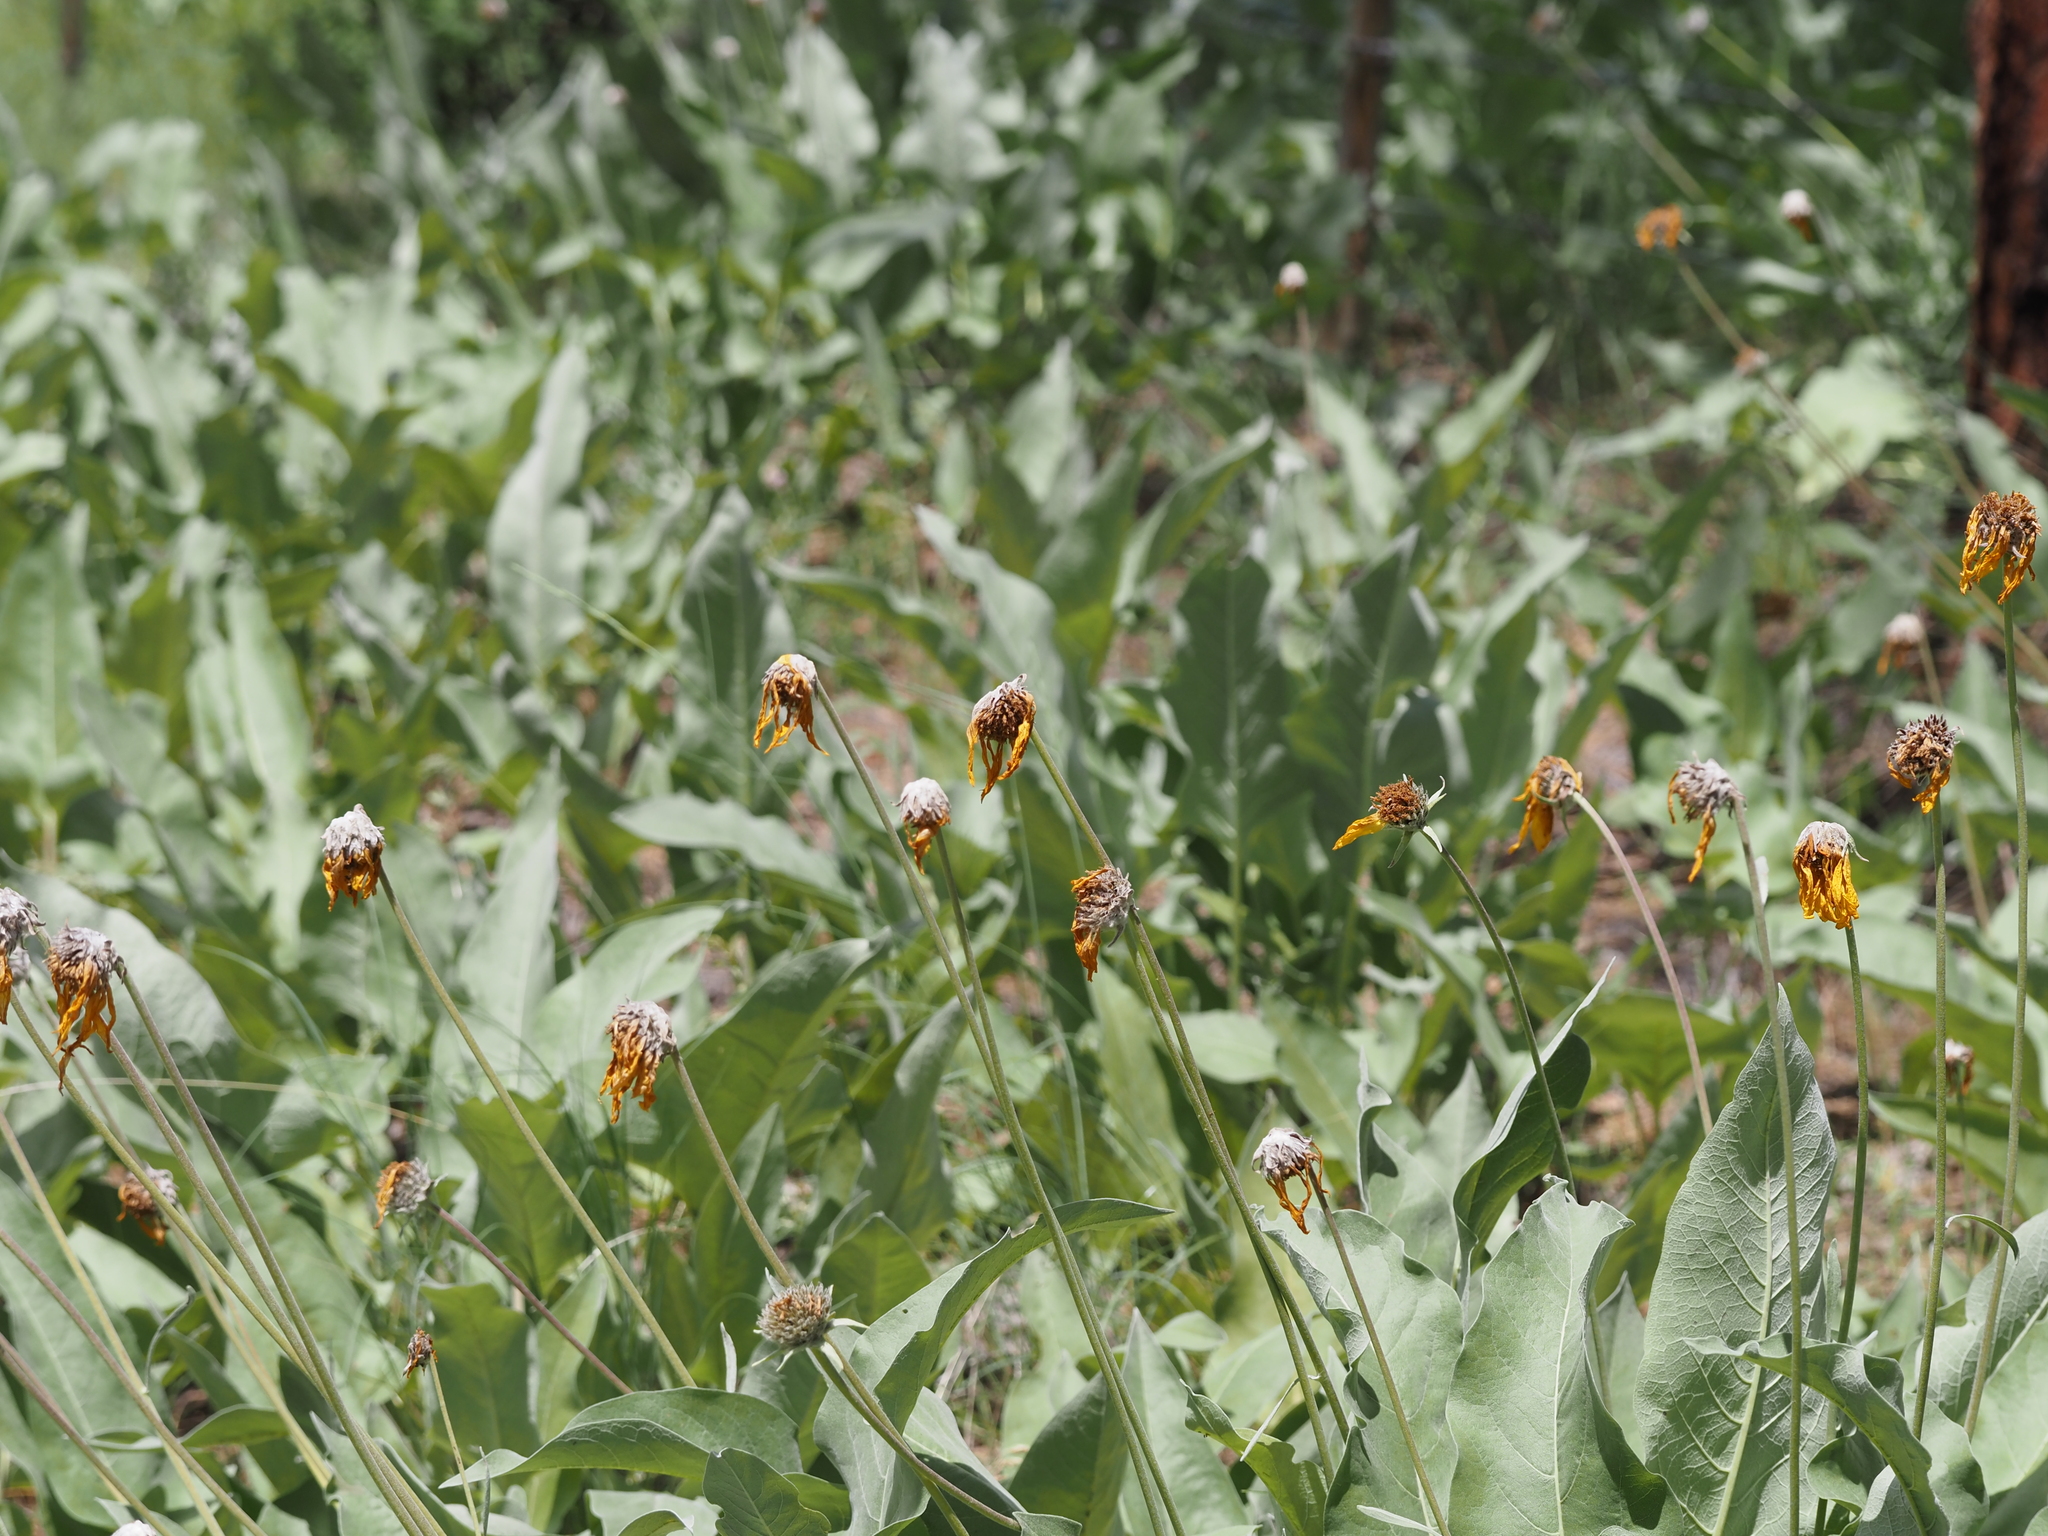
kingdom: Plantae
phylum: Tracheophyta
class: Magnoliopsida
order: Asterales
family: Asteraceae
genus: Wyethia
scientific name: Wyethia sagittata
